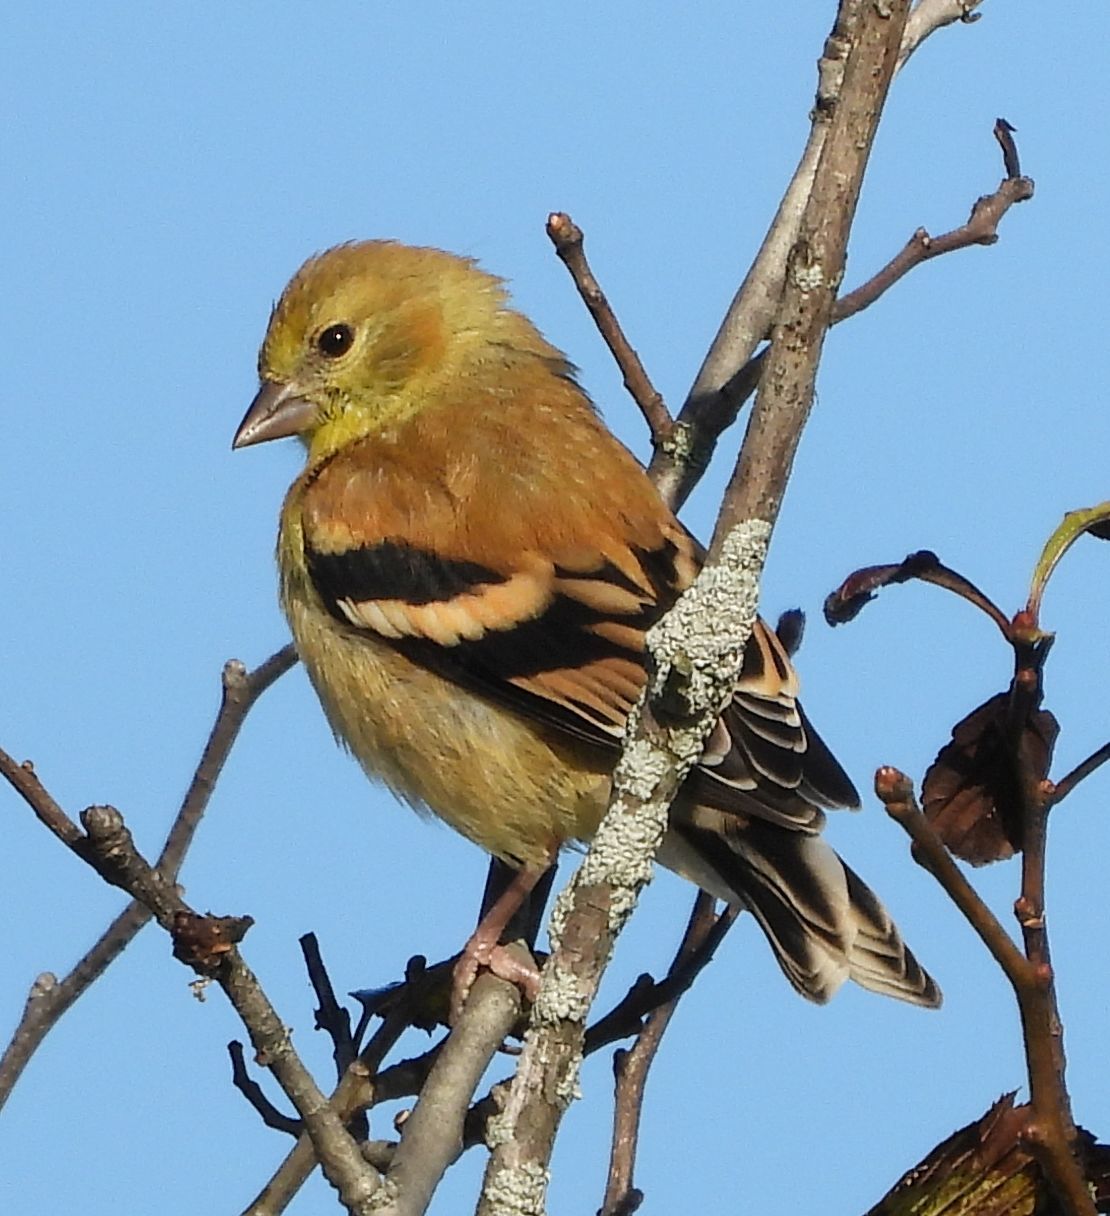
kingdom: Animalia
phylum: Chordata
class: Aves
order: Passeriformes
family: Fringillidae
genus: Spinus
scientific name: Spinus tristis
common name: American goldfinch
